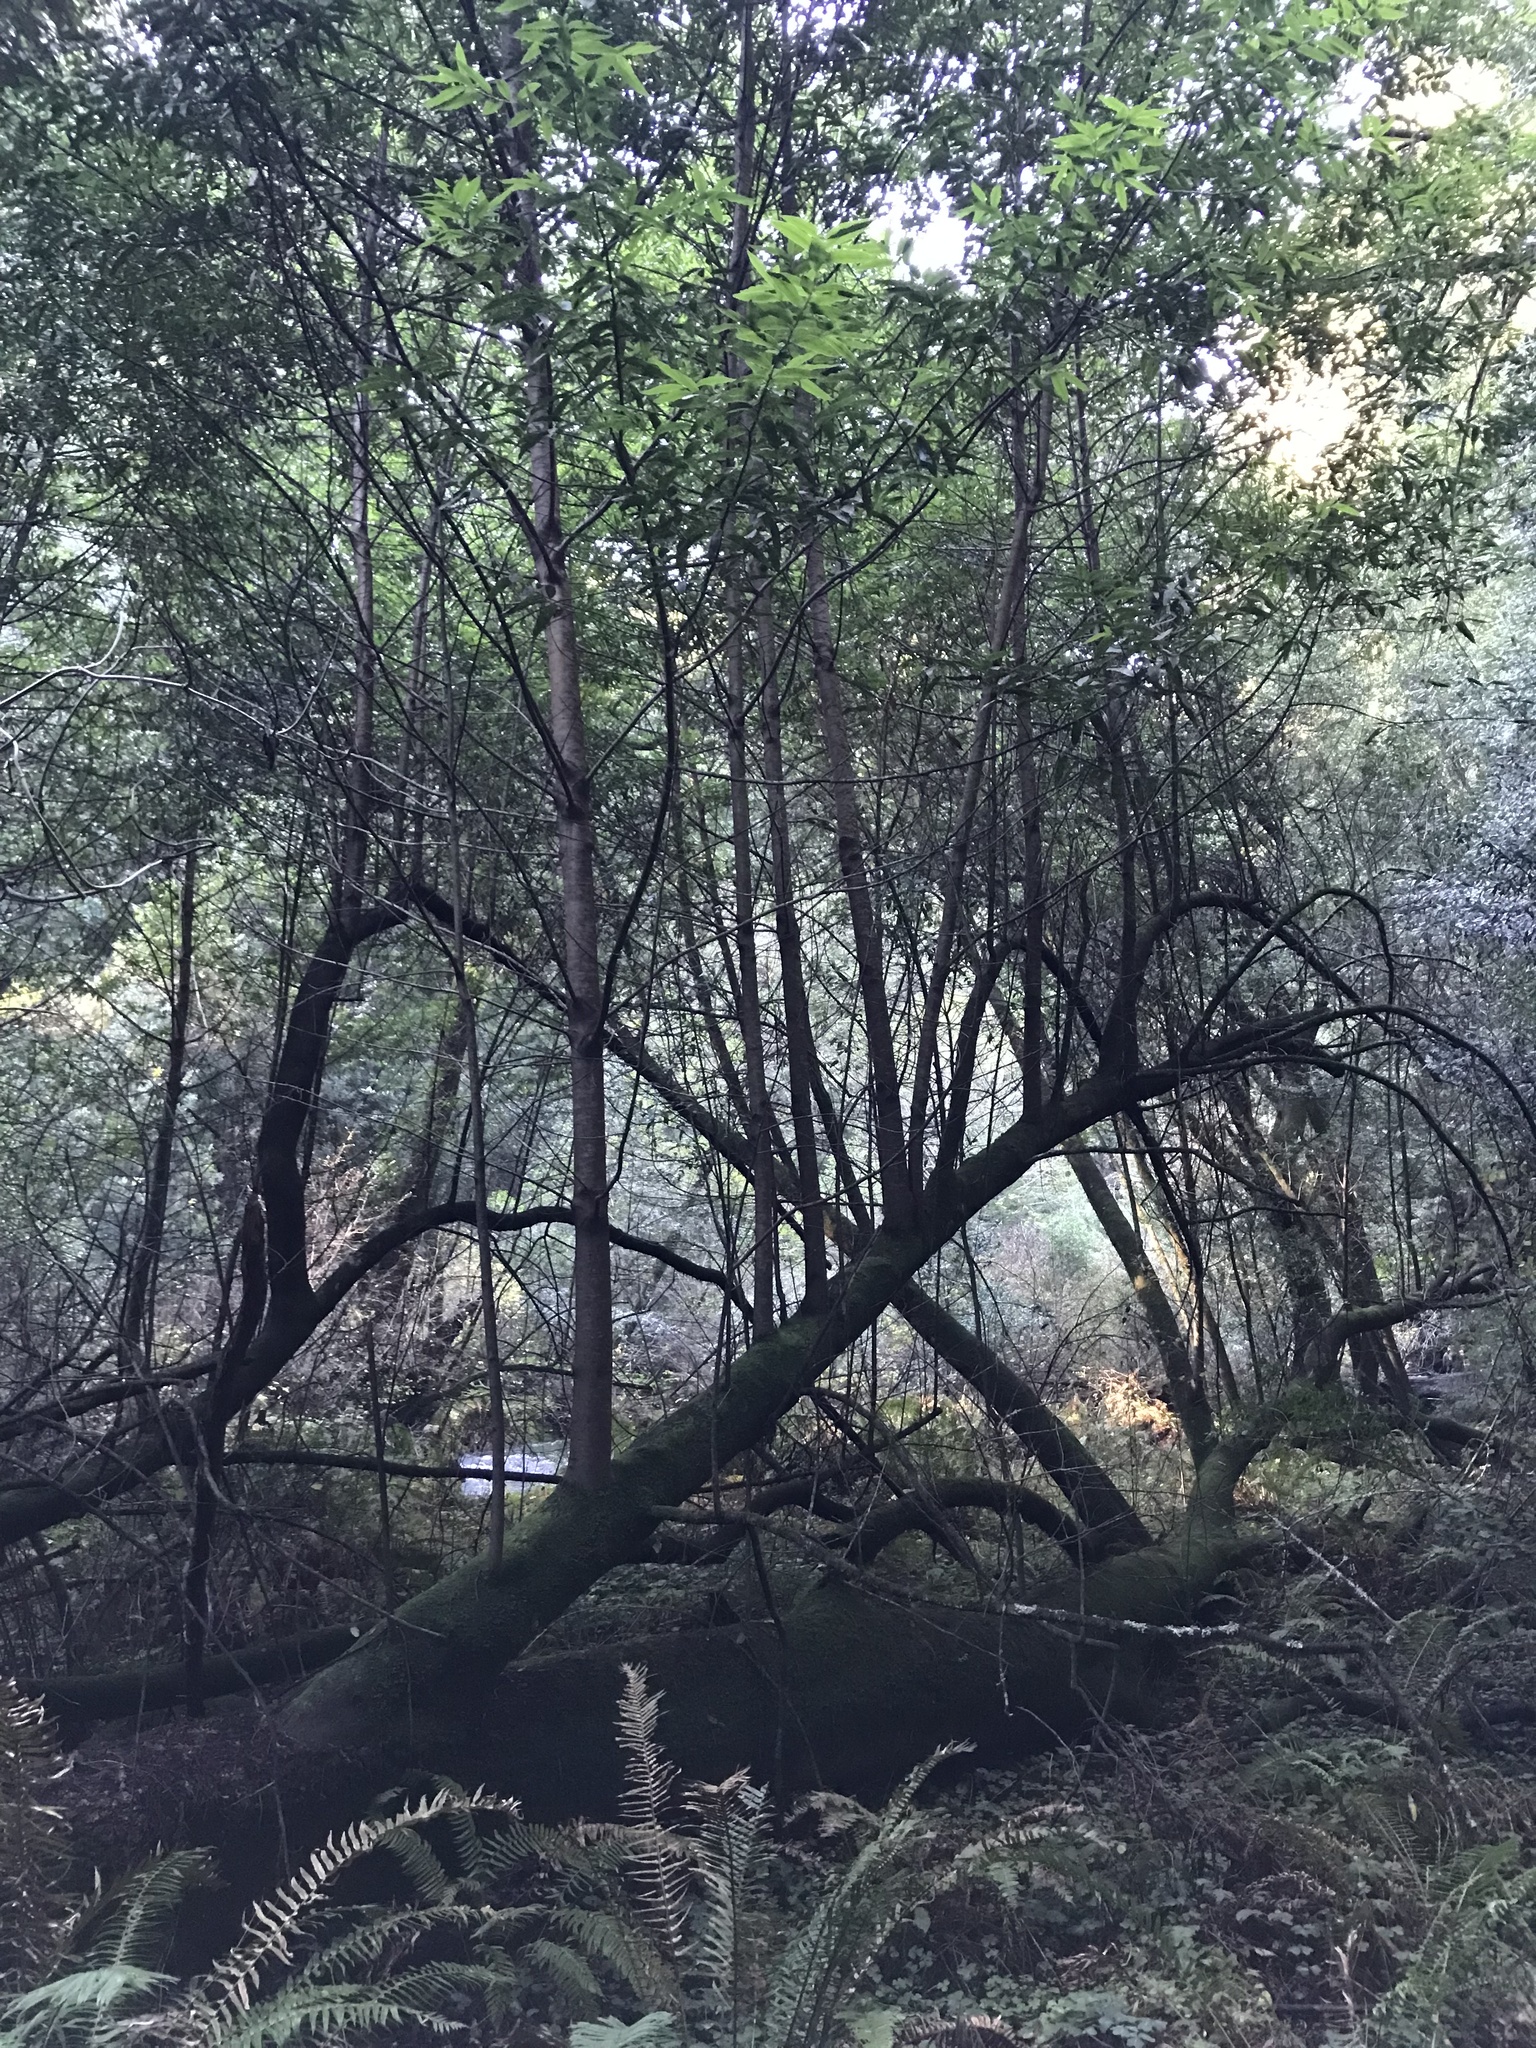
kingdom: Plantae
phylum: Tracheophyta
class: Magnoliopsida
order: Laurales
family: Lauraceae
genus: Umbellularia
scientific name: Umbellularia californica
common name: California bay
